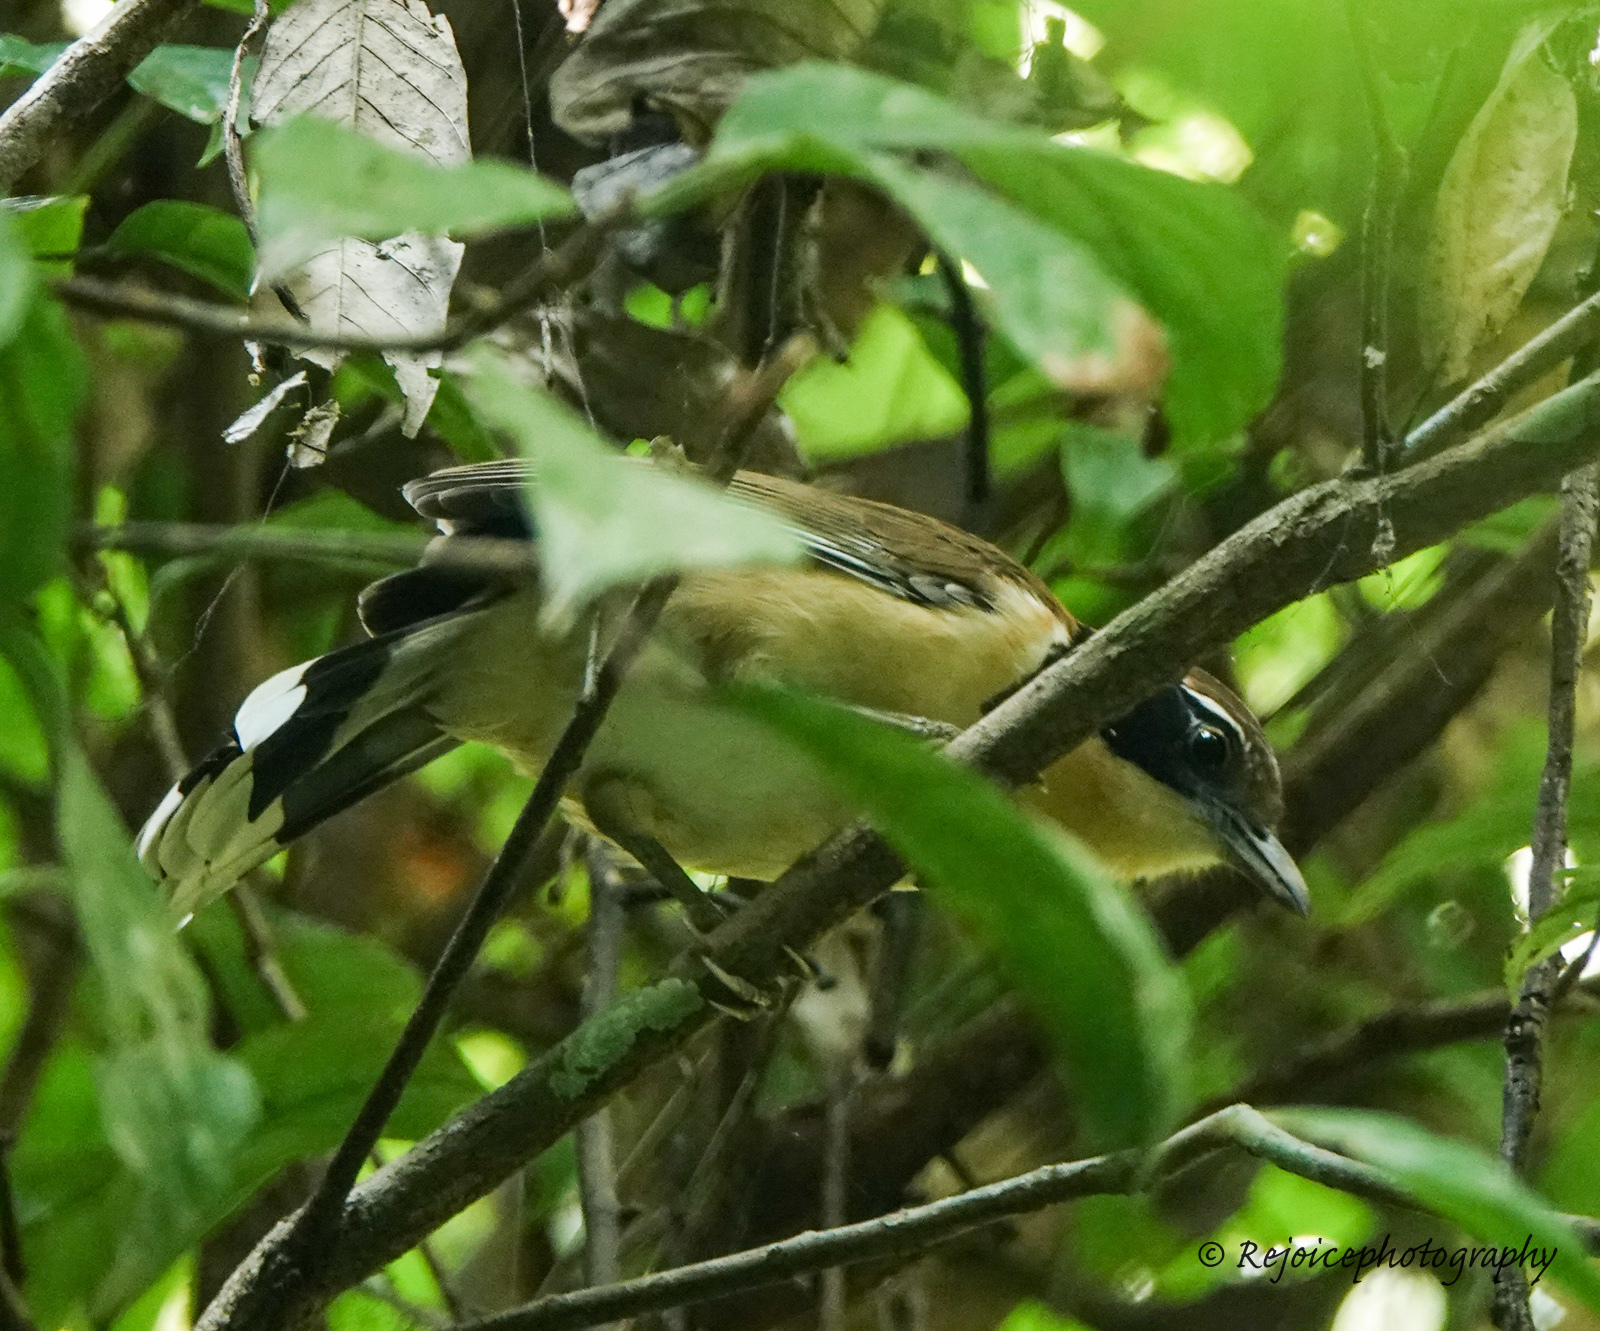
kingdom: Animalia
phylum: Chordata
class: Aves
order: Passeriformes
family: Leiothrichidae
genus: Garrulax
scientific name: Garrulax pectoralis
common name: Greater necklaced laughingthrush
